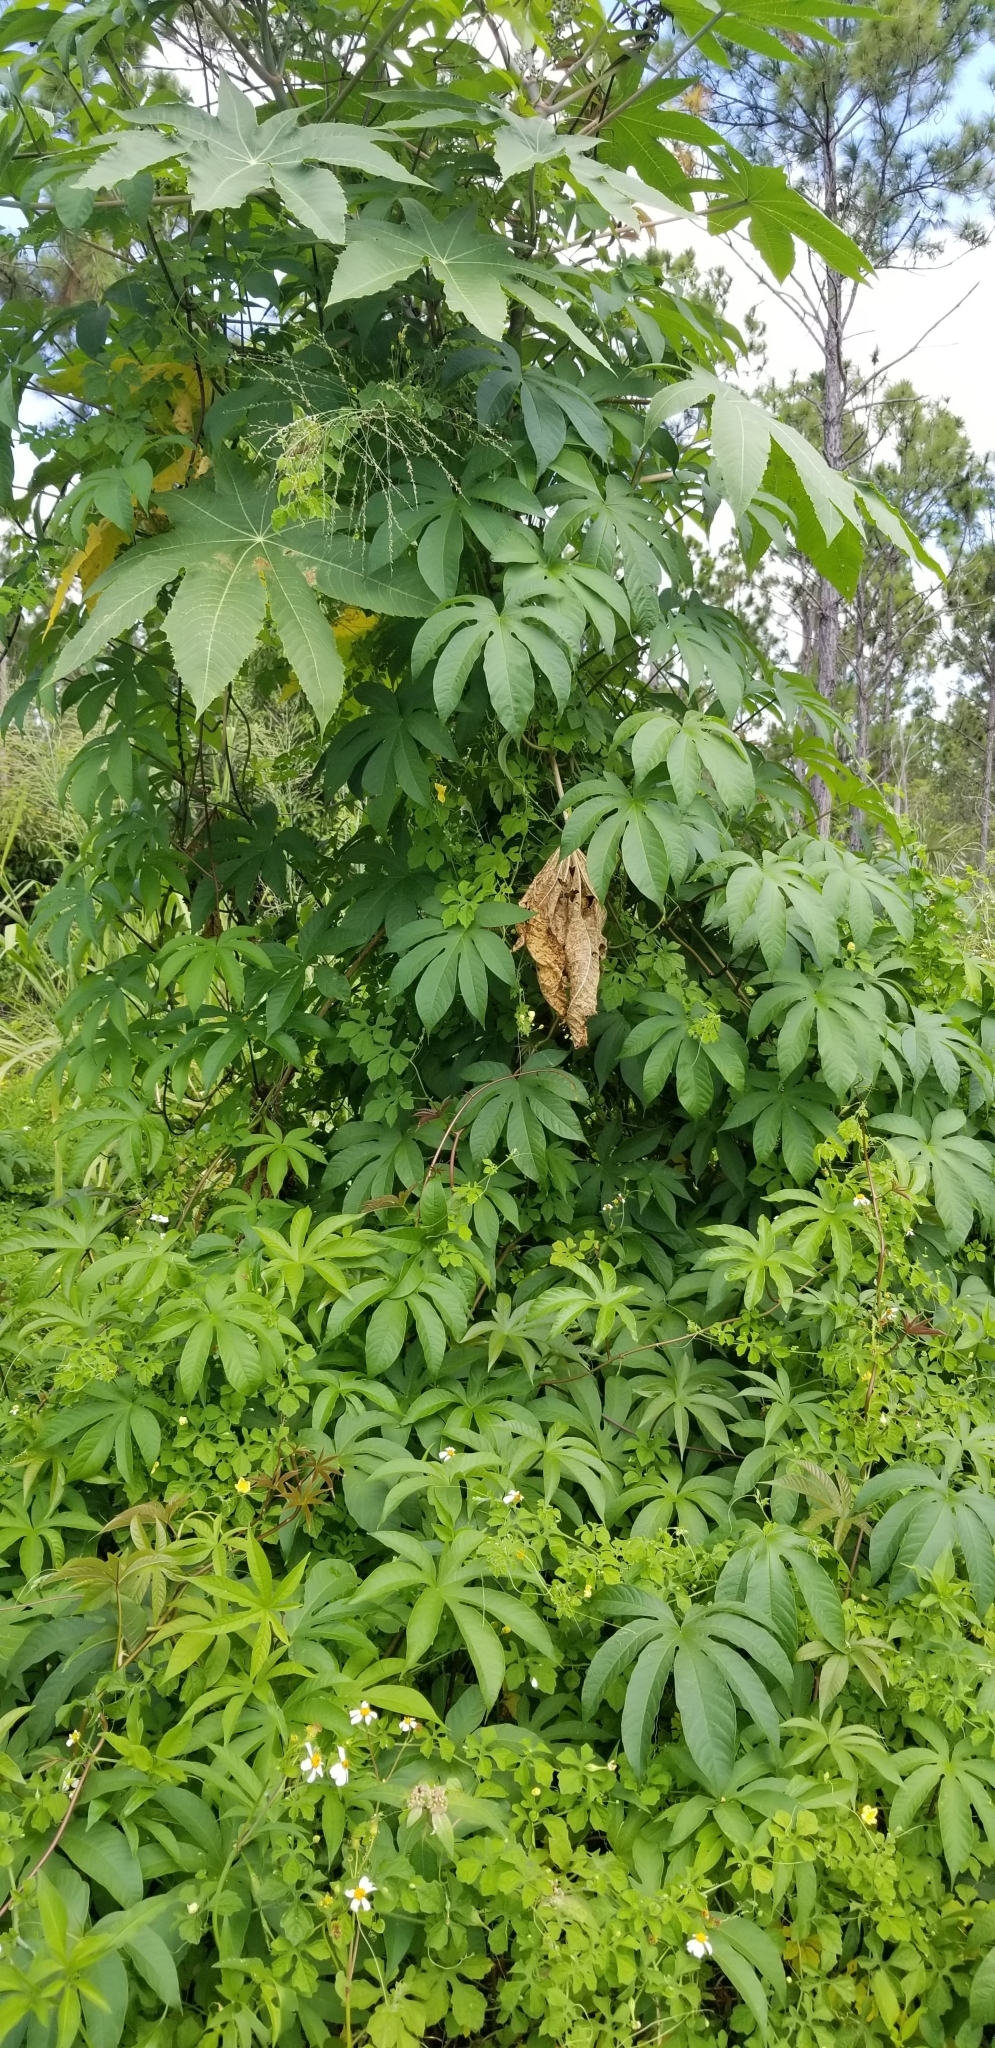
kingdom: Plantae
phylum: Tracheophyta
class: Magnoliopsida
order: Malpighiales
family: Euphorbiaceae
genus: Ricinus
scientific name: Ricinus communis
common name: Castor-oil-plant
